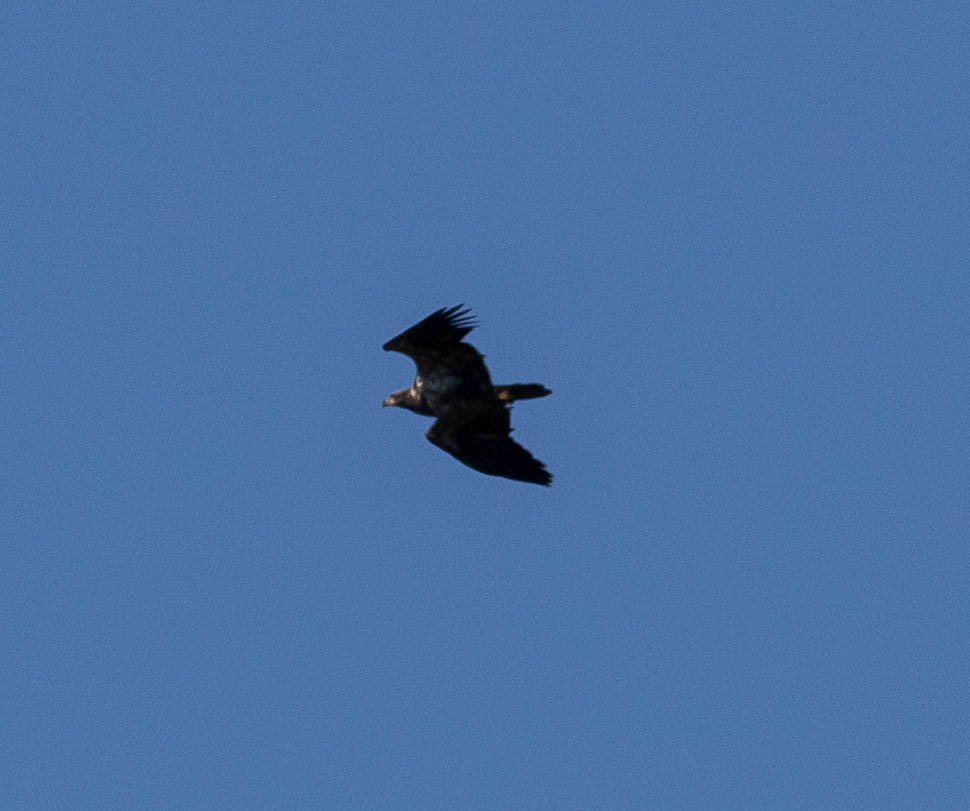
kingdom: Animalia
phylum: Chordata
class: Aves
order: Accipitriformes
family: Accipitridae
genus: Haliaeetus
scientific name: Haliaeetus leucocephalus
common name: Bald eagle
